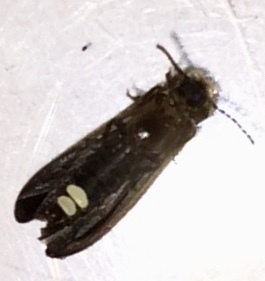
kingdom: Animalia
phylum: Arthropoda
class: Insecta
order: Coleoptera
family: Lampyridae
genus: Phausis
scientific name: Phausis reticulata
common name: Blue ghost firefly
